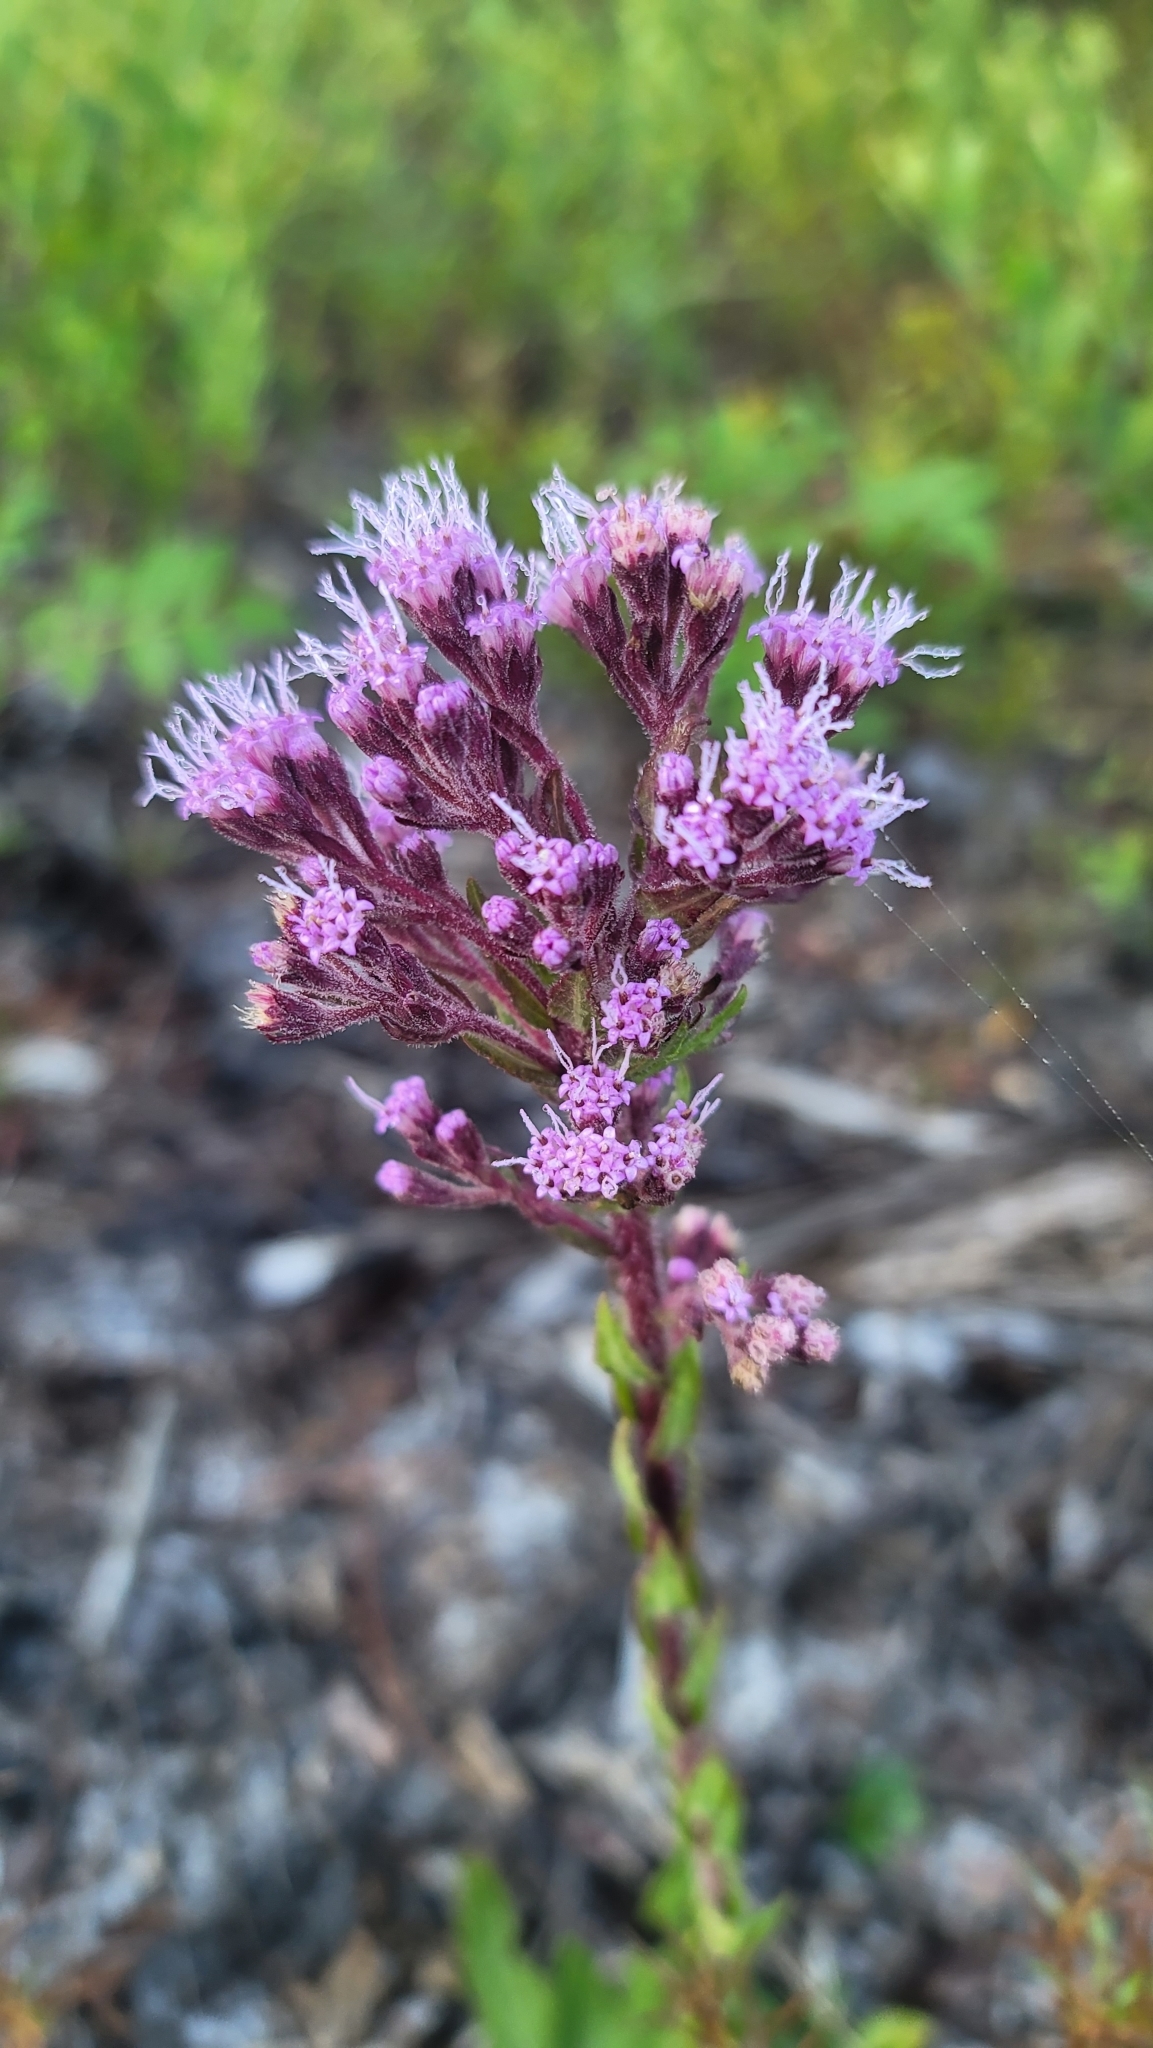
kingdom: Plantae
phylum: Tracheophyta
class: Magnoliopsida
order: Asterales
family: Asteraceae
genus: Carphephorus
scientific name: Carphephorus paniculatus
